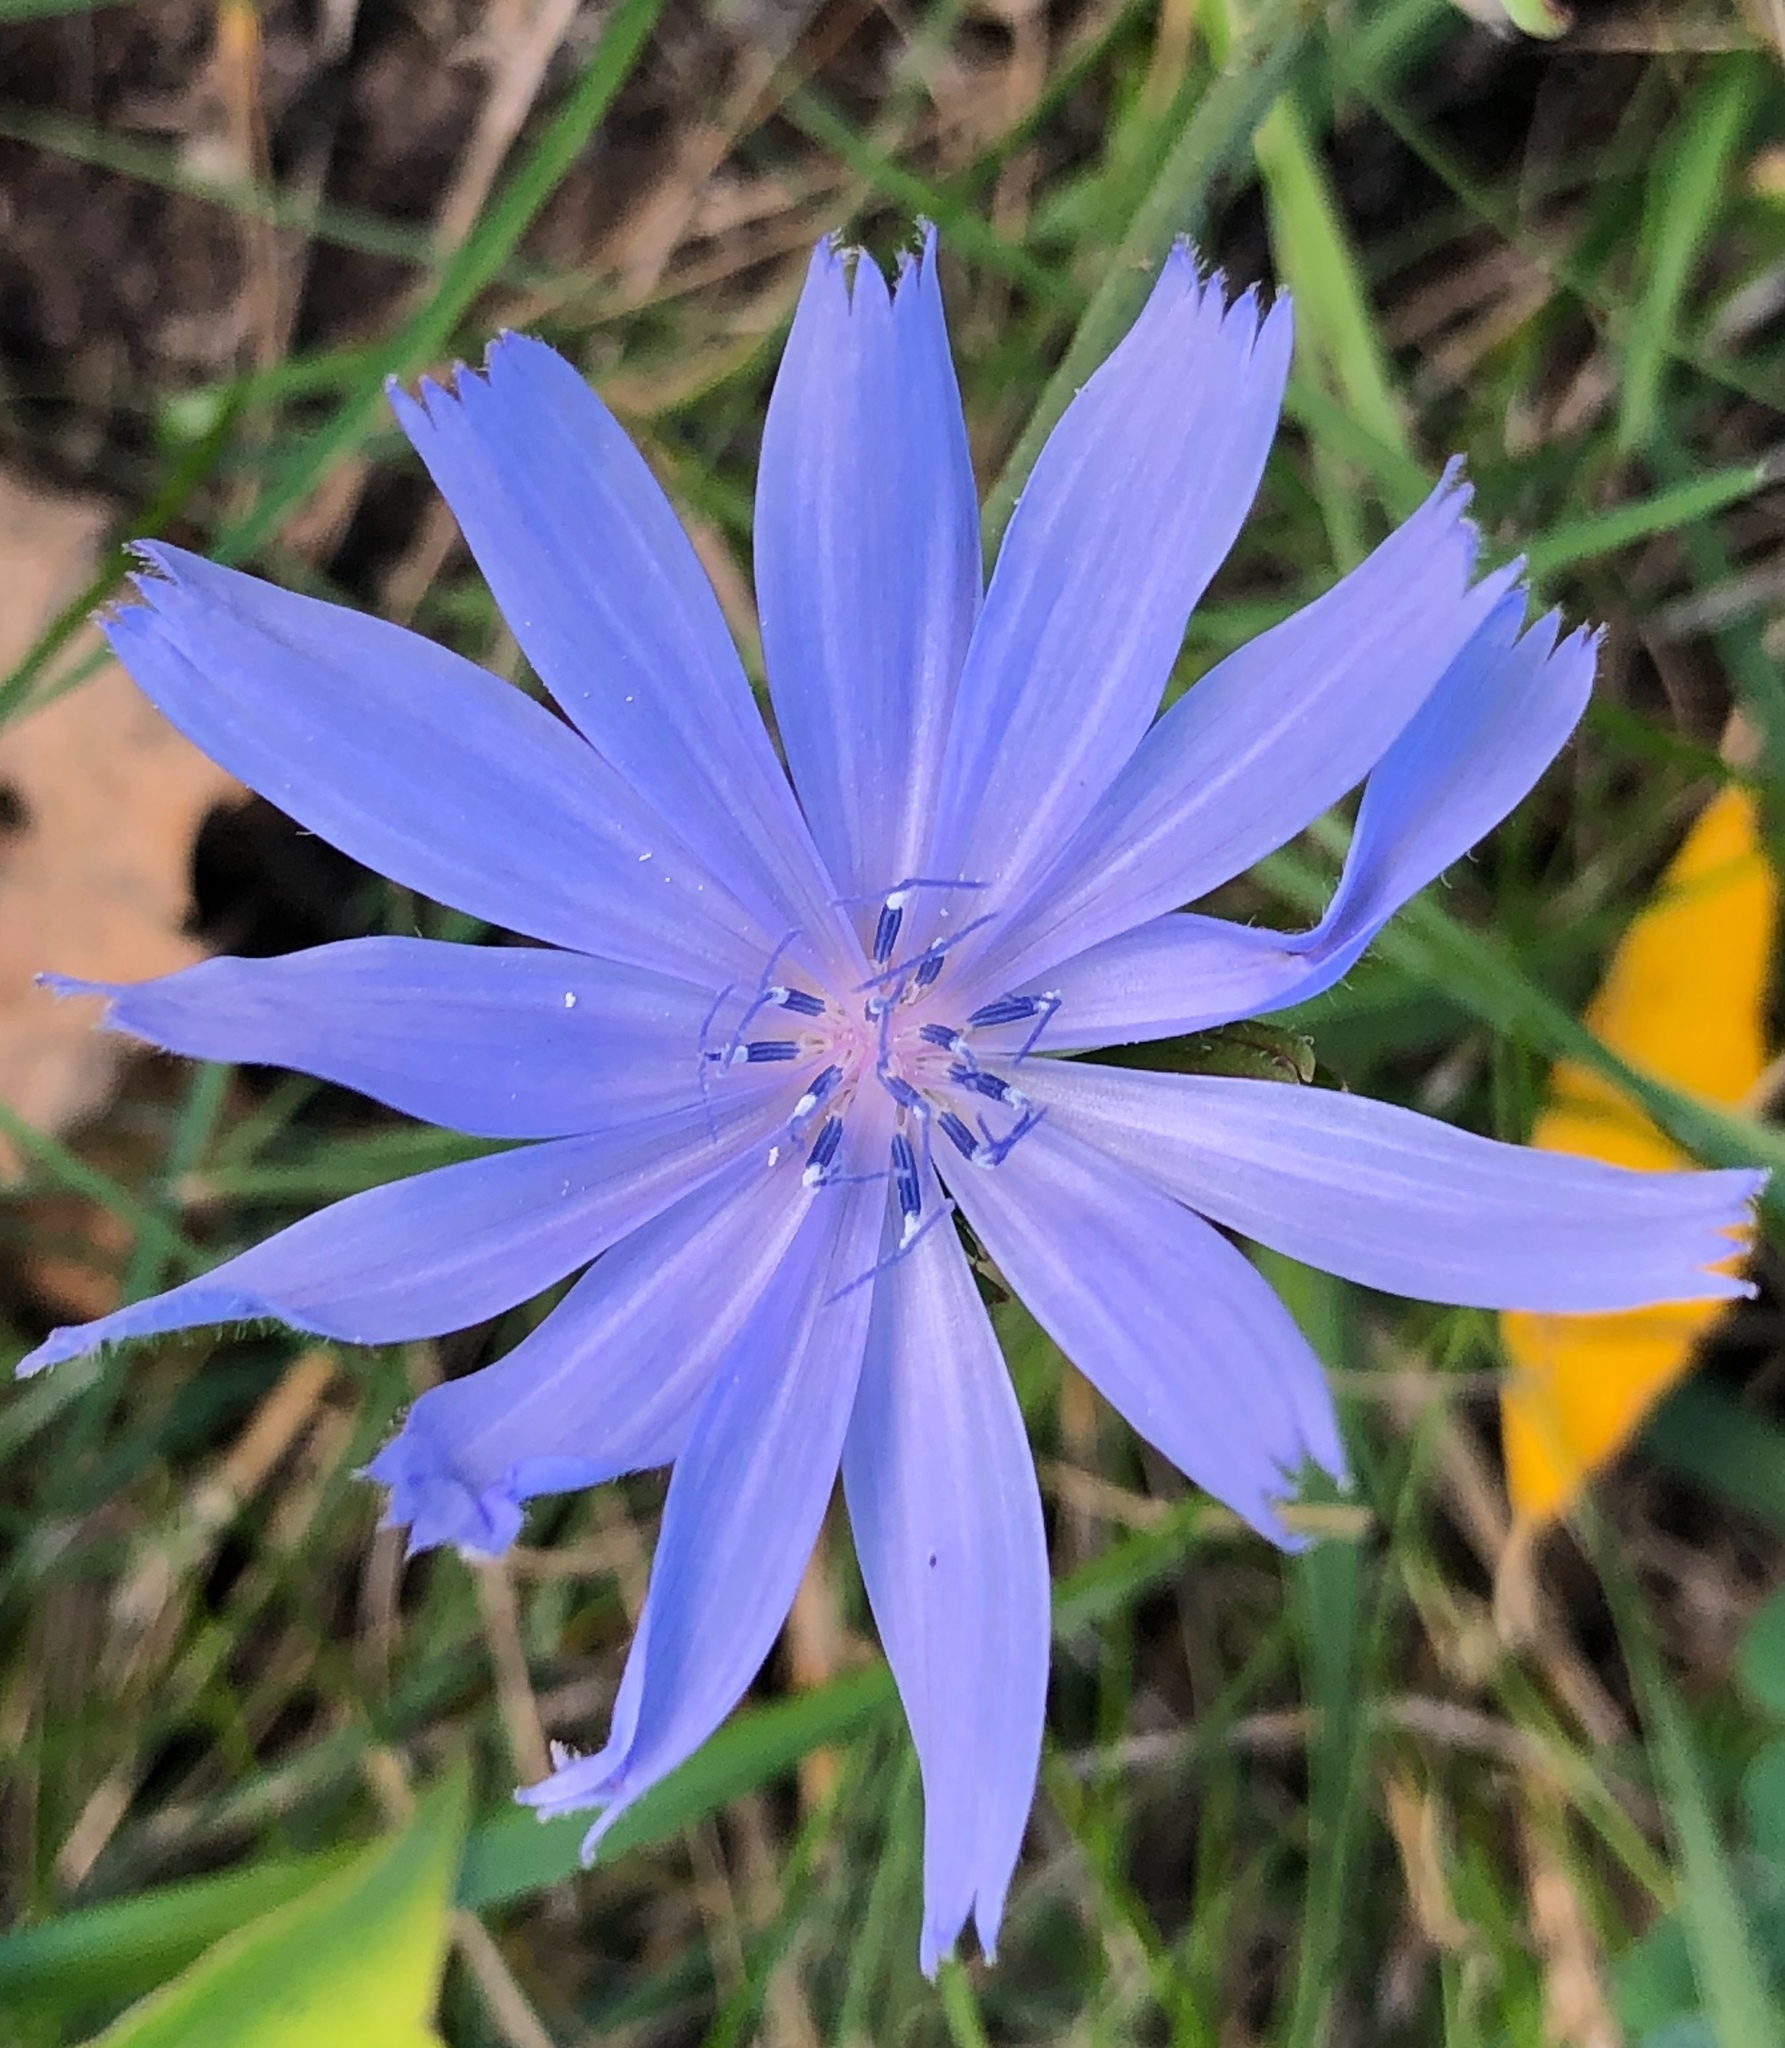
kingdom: Plantae
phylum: Tracheophyta
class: Magnoliopsida
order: Asterales
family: Asteraceae
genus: Cichorium
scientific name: Cichorium intybus
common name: Chicory
